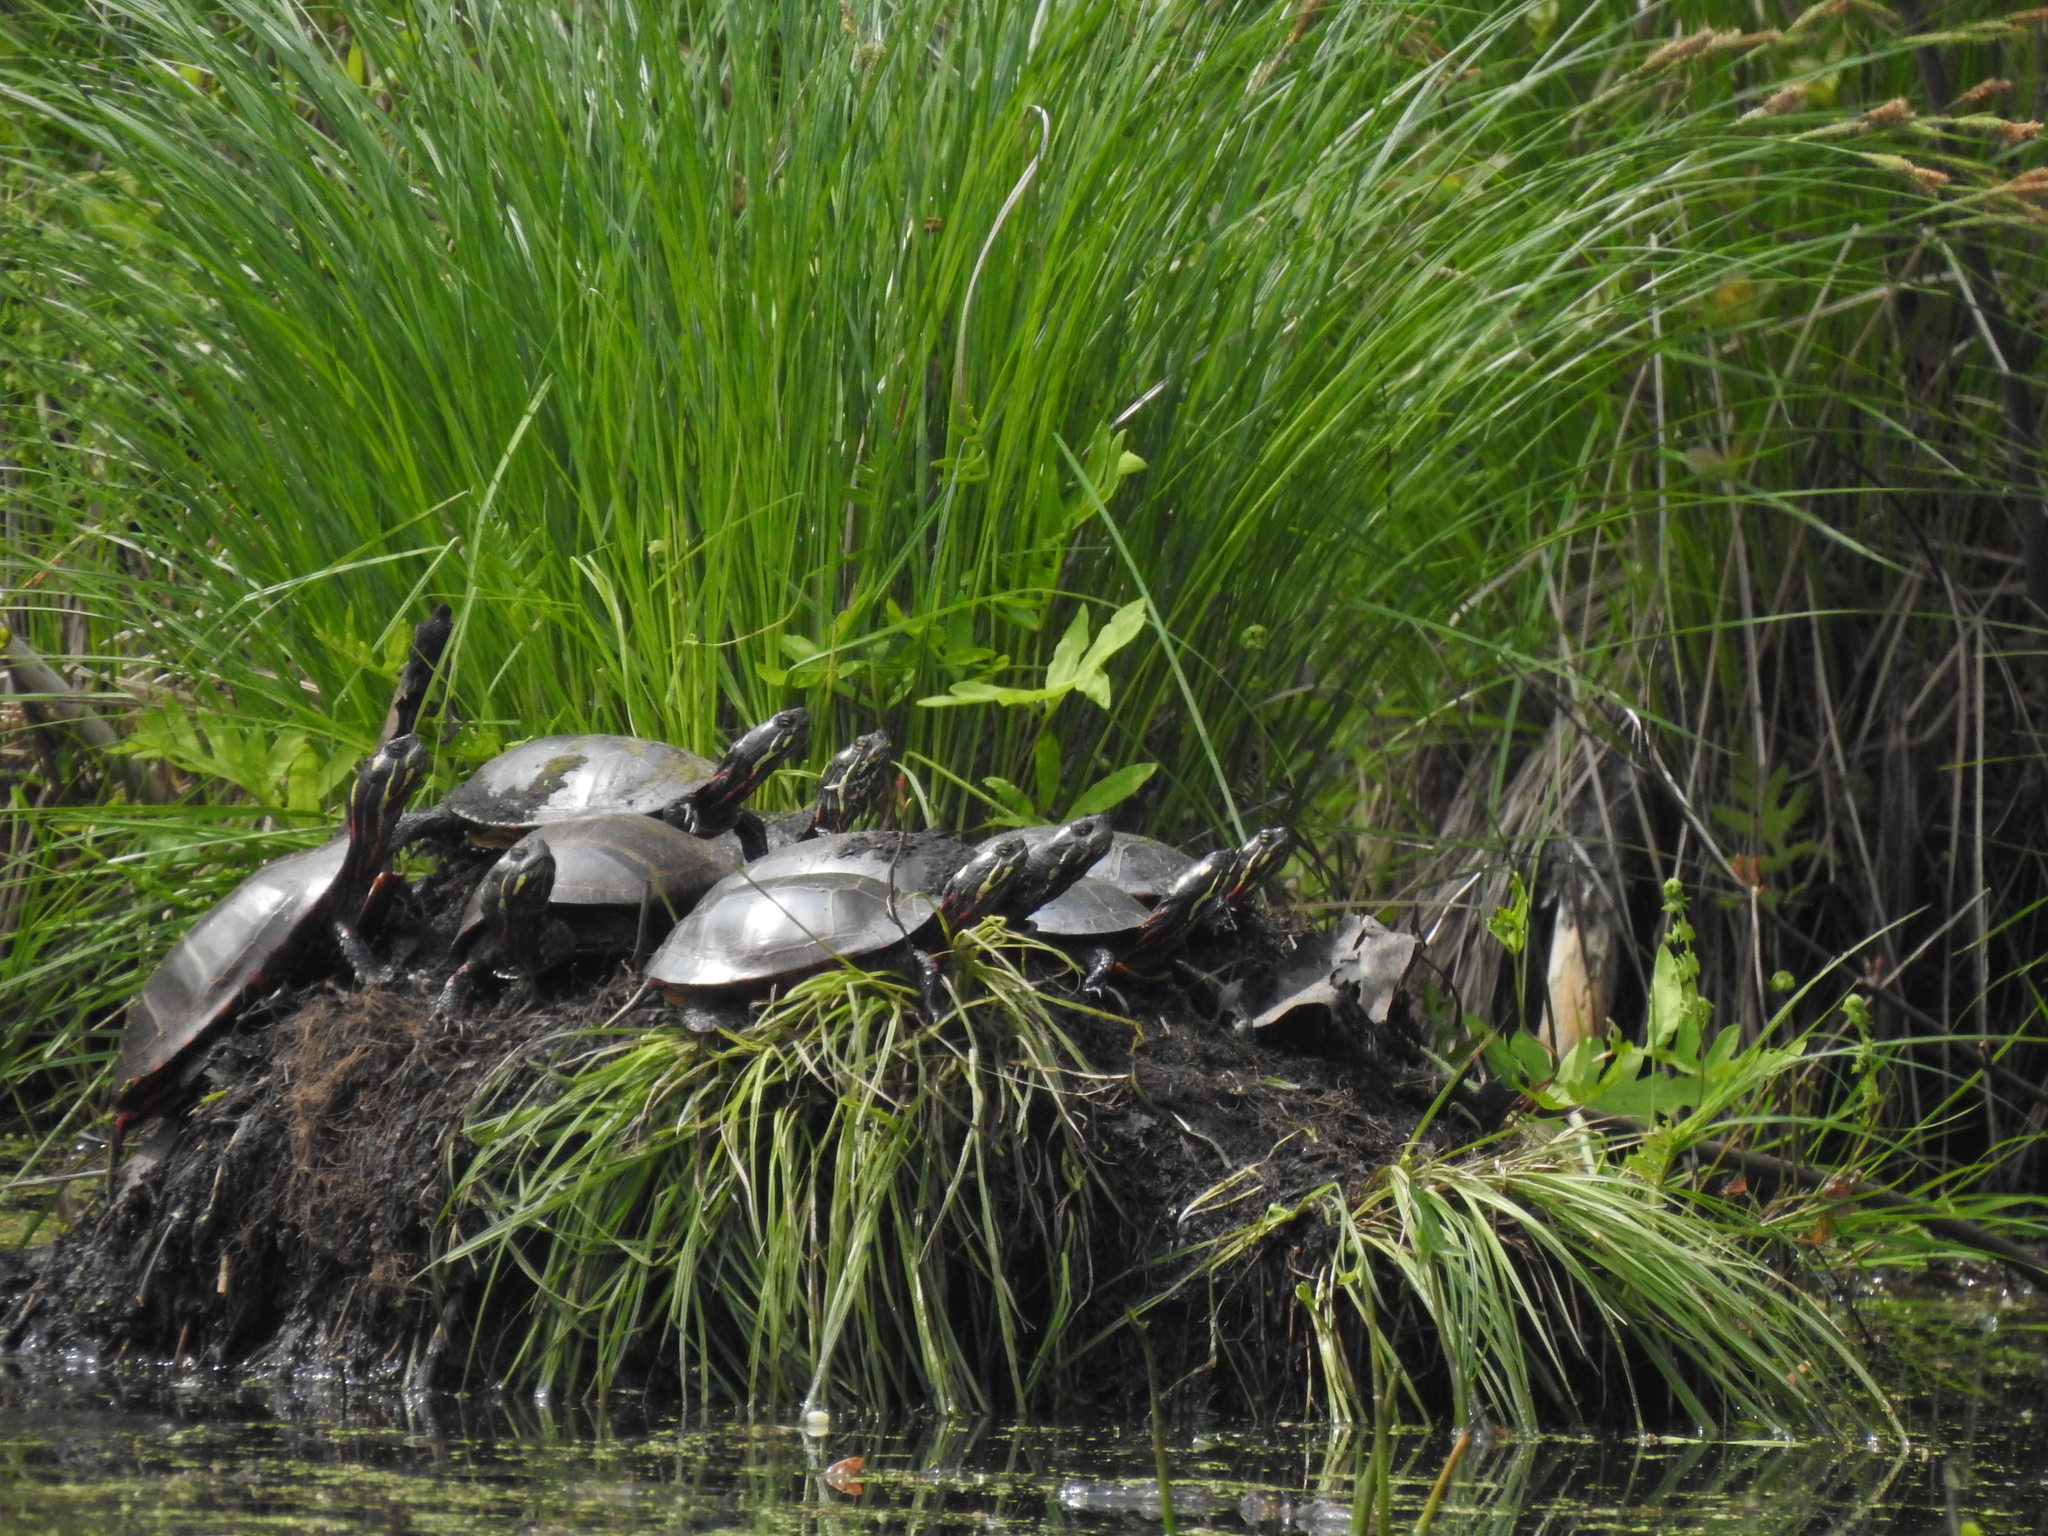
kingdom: Animalia
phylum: Chordata
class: Testudines
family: Emydidae
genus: Chrysemys
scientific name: Chrysemys picta
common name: Painted turtle
